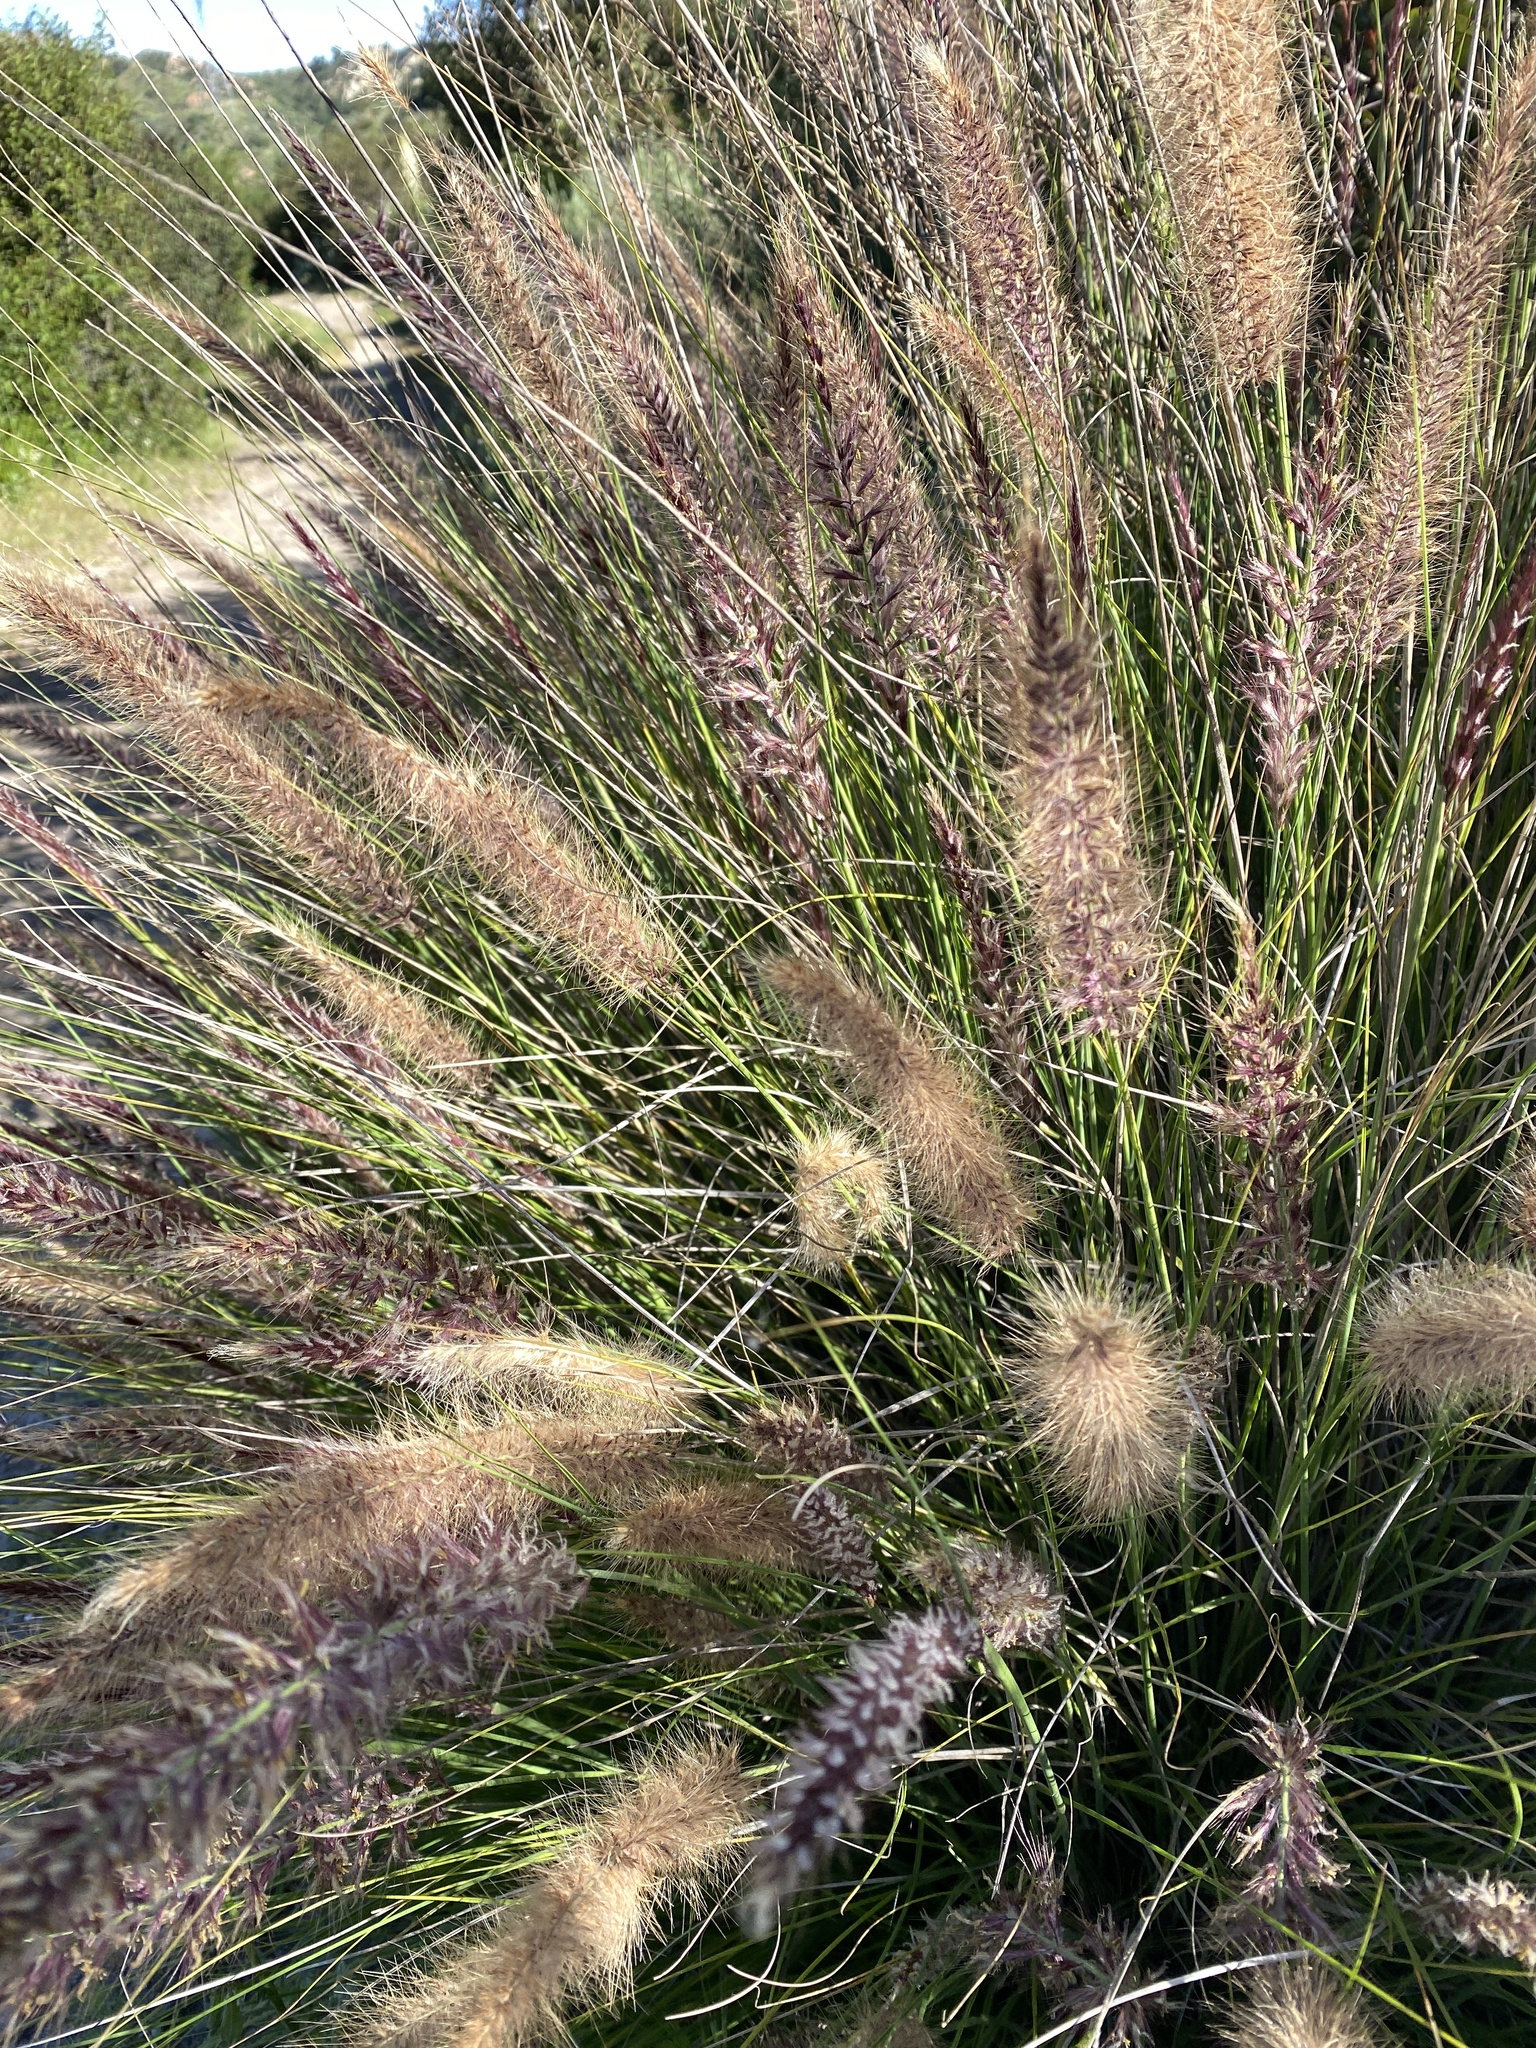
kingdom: Plantae
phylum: Tracheophyta
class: Liliopsida
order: Poales
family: Poaceae
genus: Cenchrus
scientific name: Cenchrus setaceus
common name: Crimson fountaingrass
